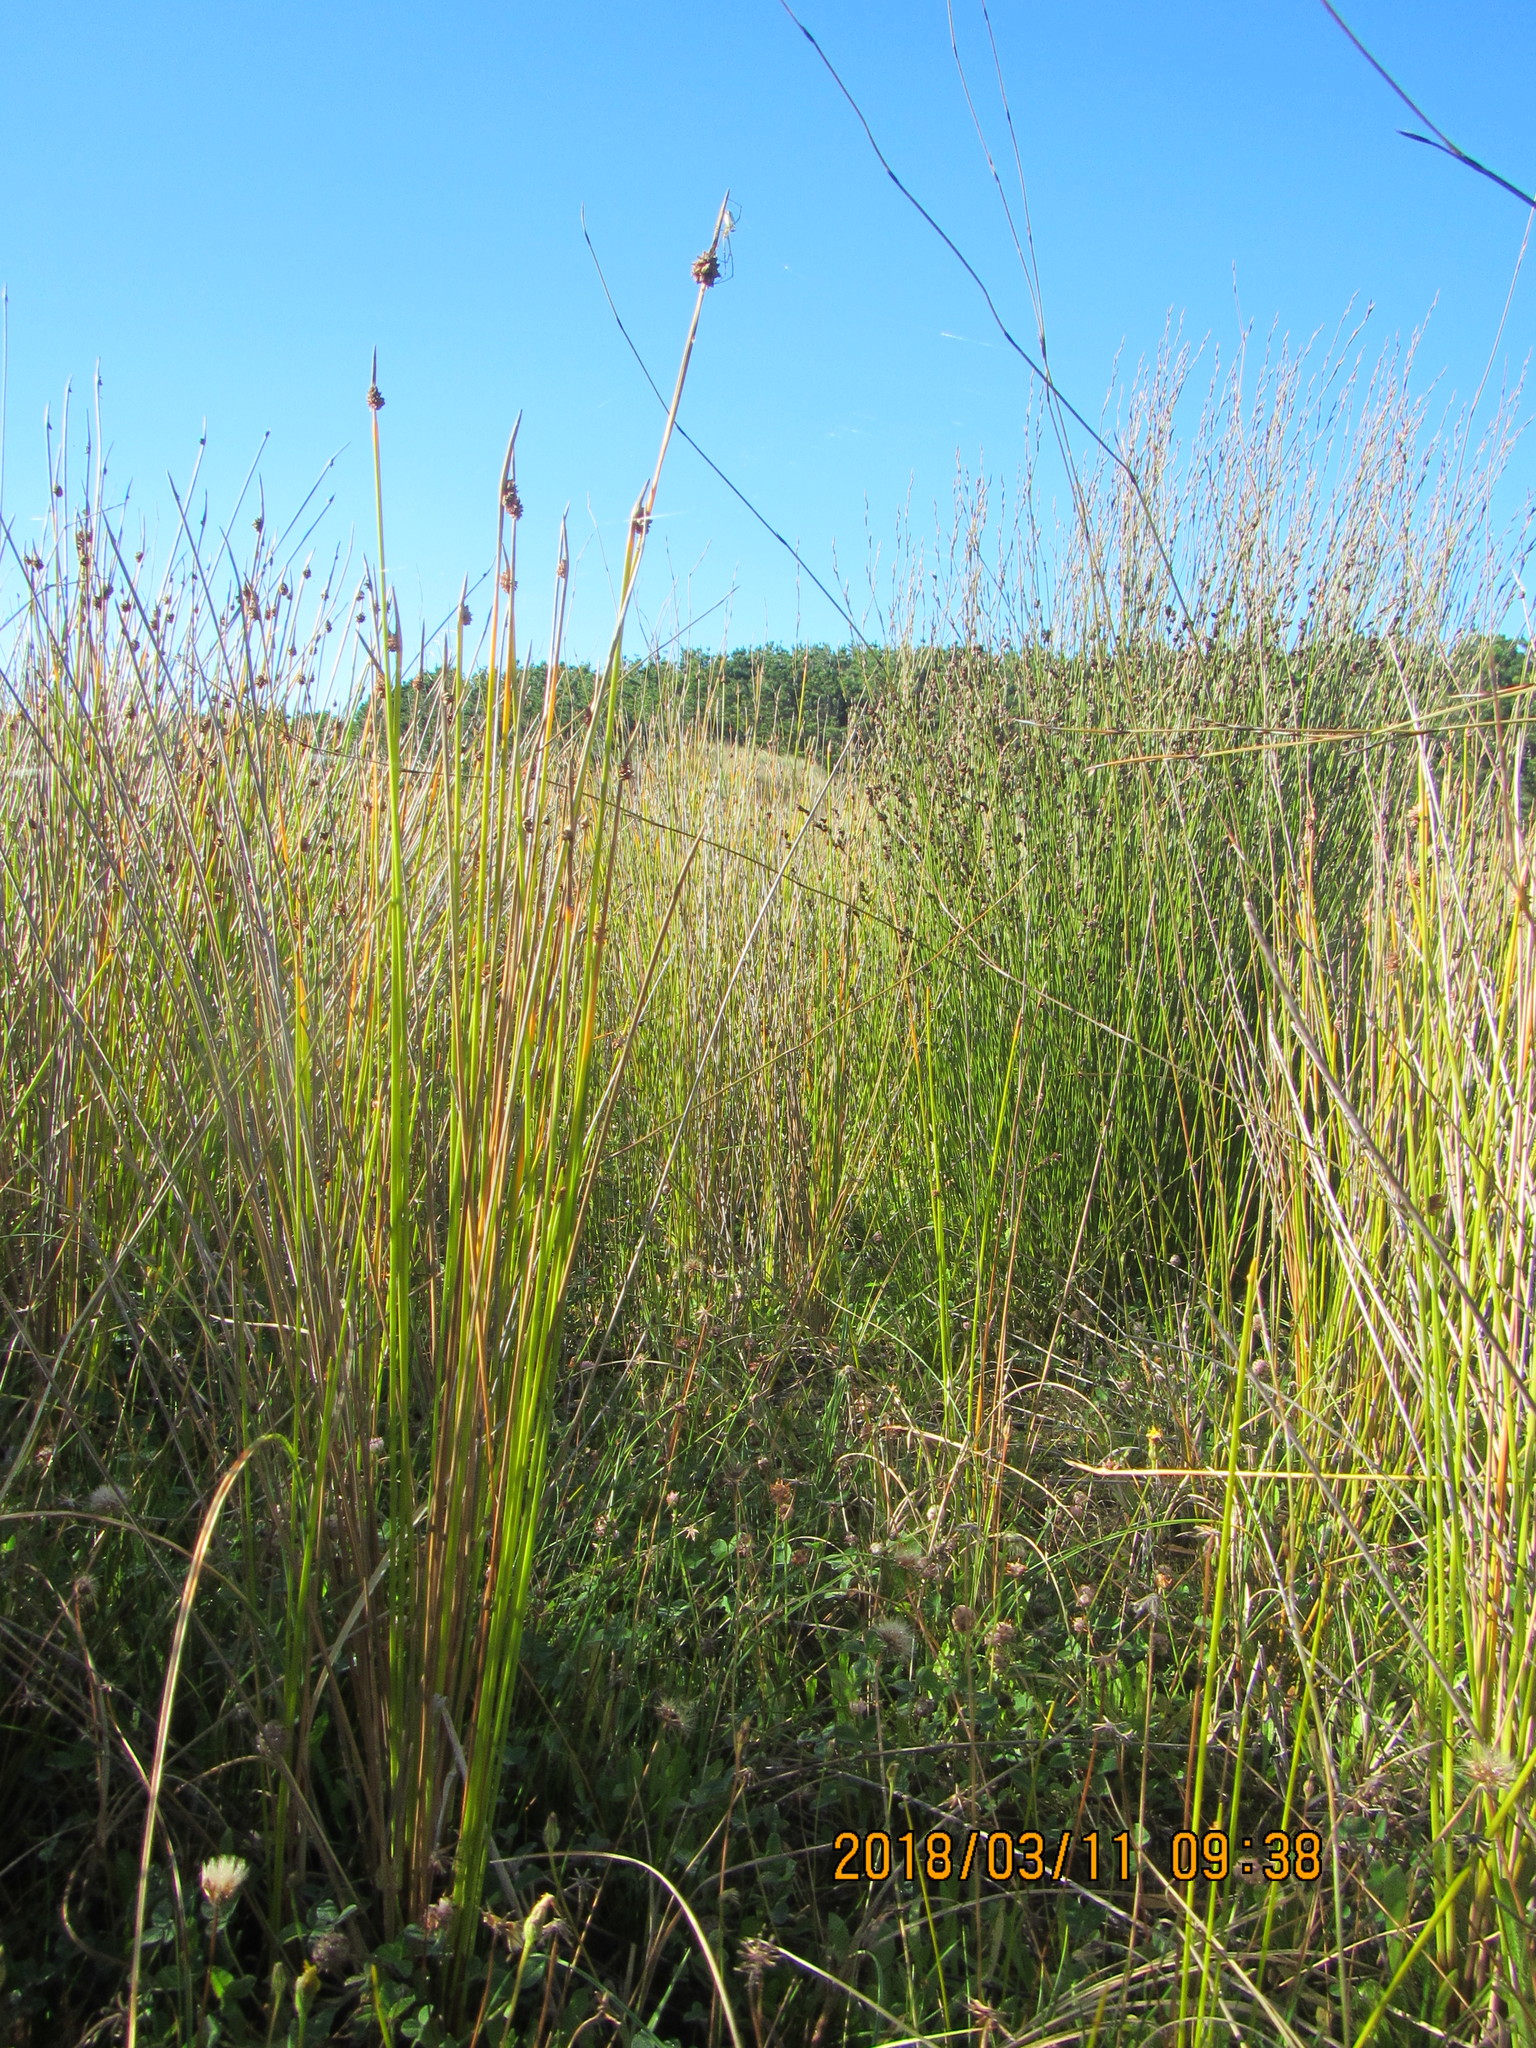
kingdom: Animalia
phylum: Arthropoda
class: Arachnida
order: Araneae
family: Tetragnathidae
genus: Leucauge
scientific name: Leucauge dromedaria
